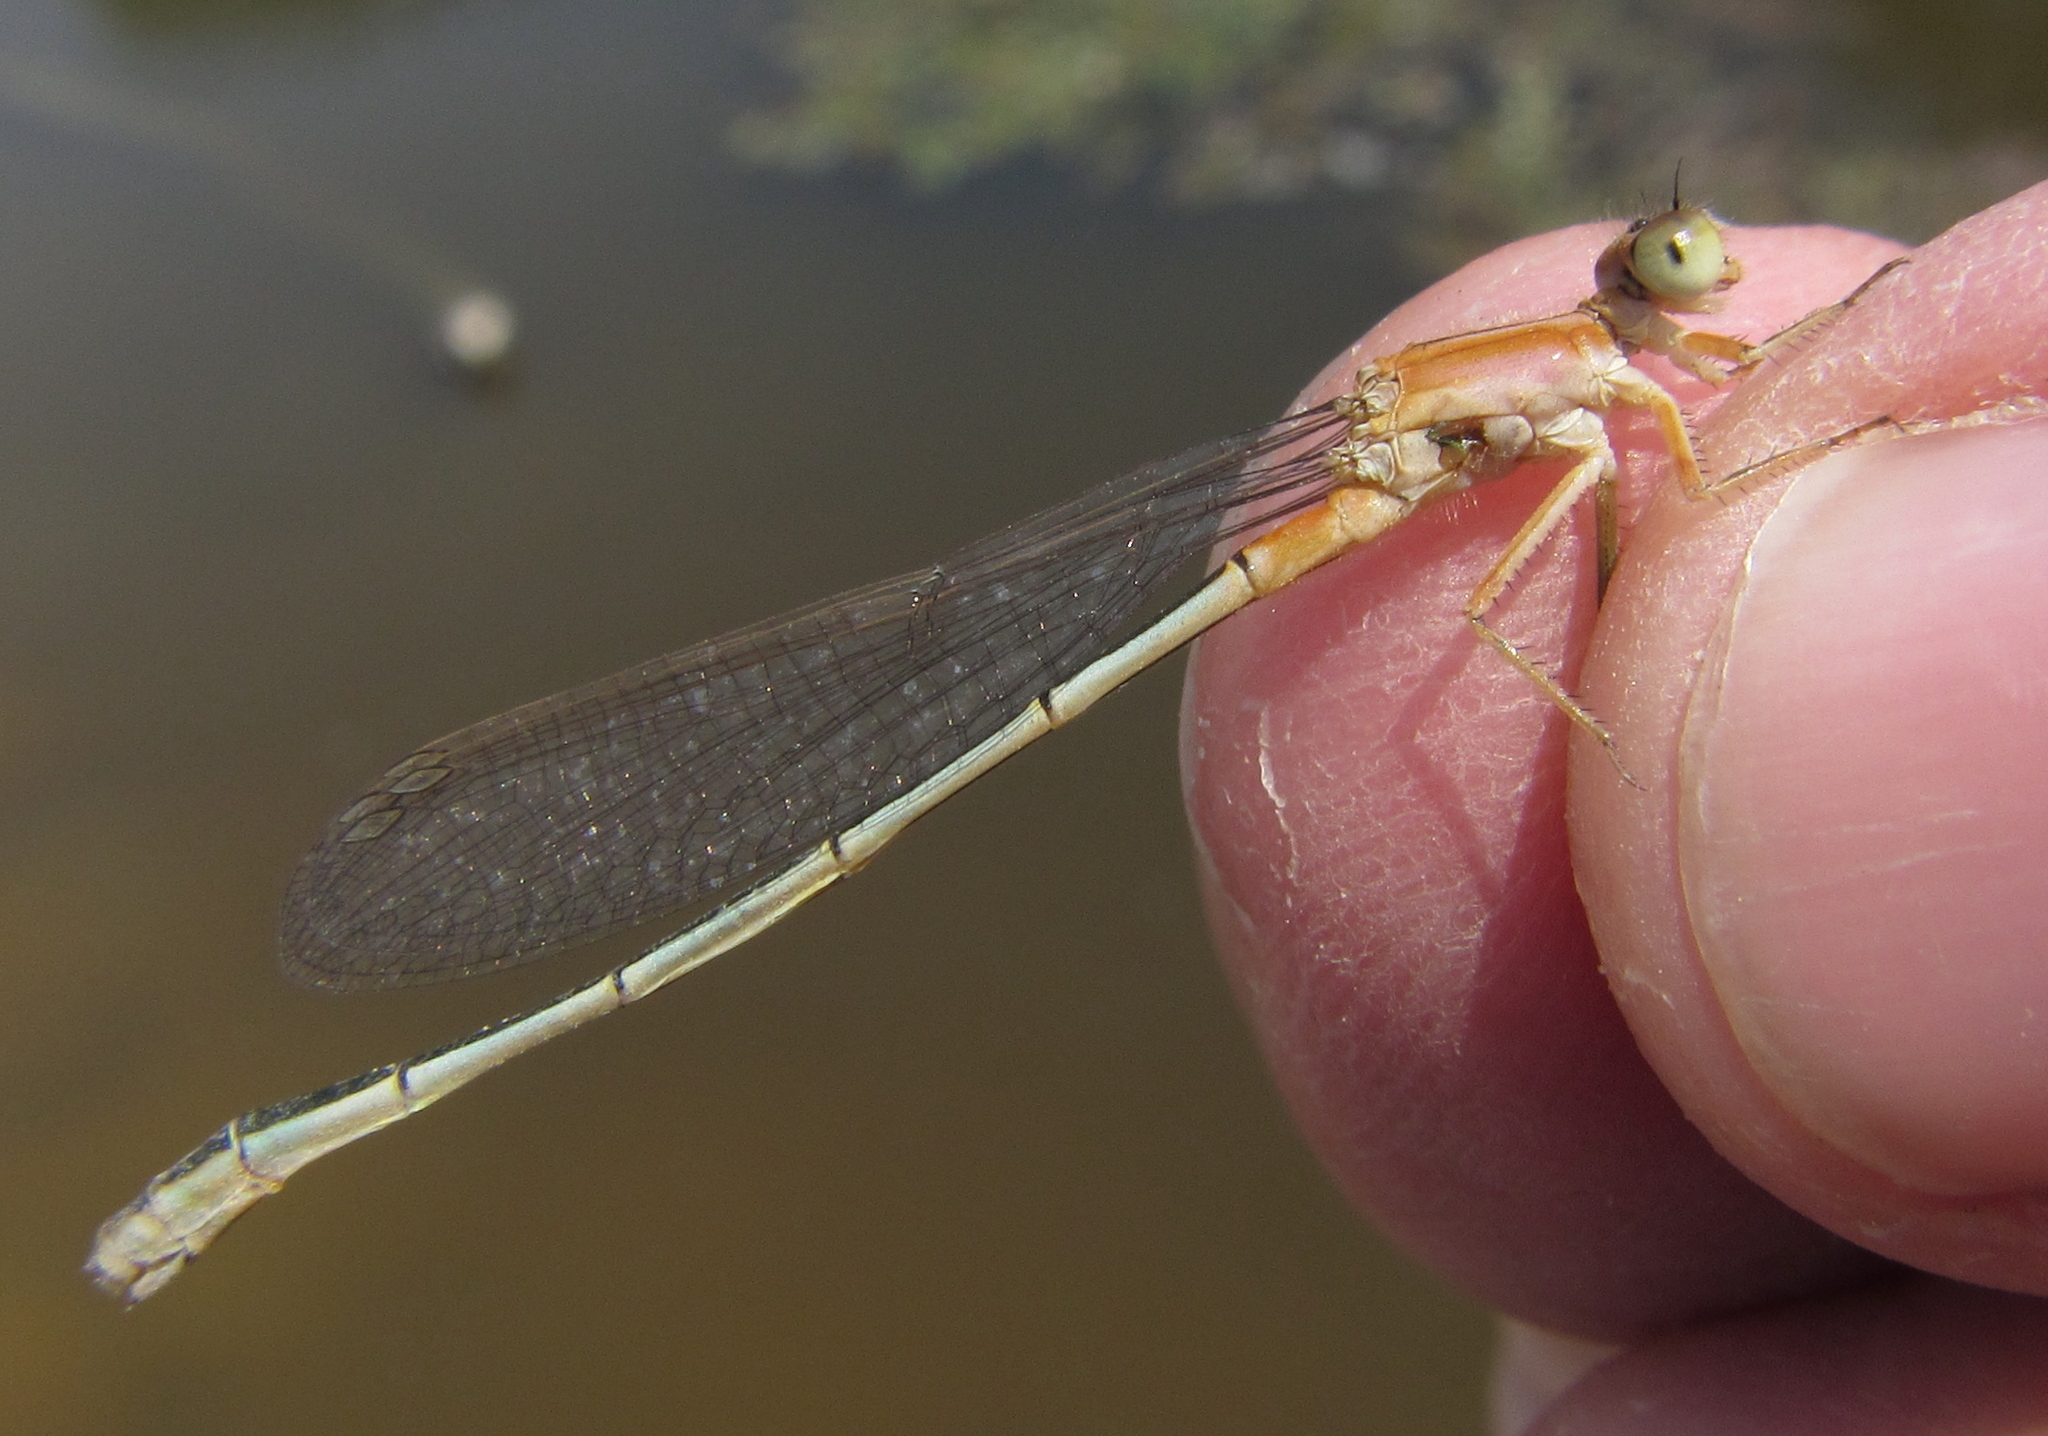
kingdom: Animalia
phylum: Arthropoda
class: Insecta
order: Odonata
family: Coenagrionidae
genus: Ischnura
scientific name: Ischnura senegalensis
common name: Tropical bluetail
